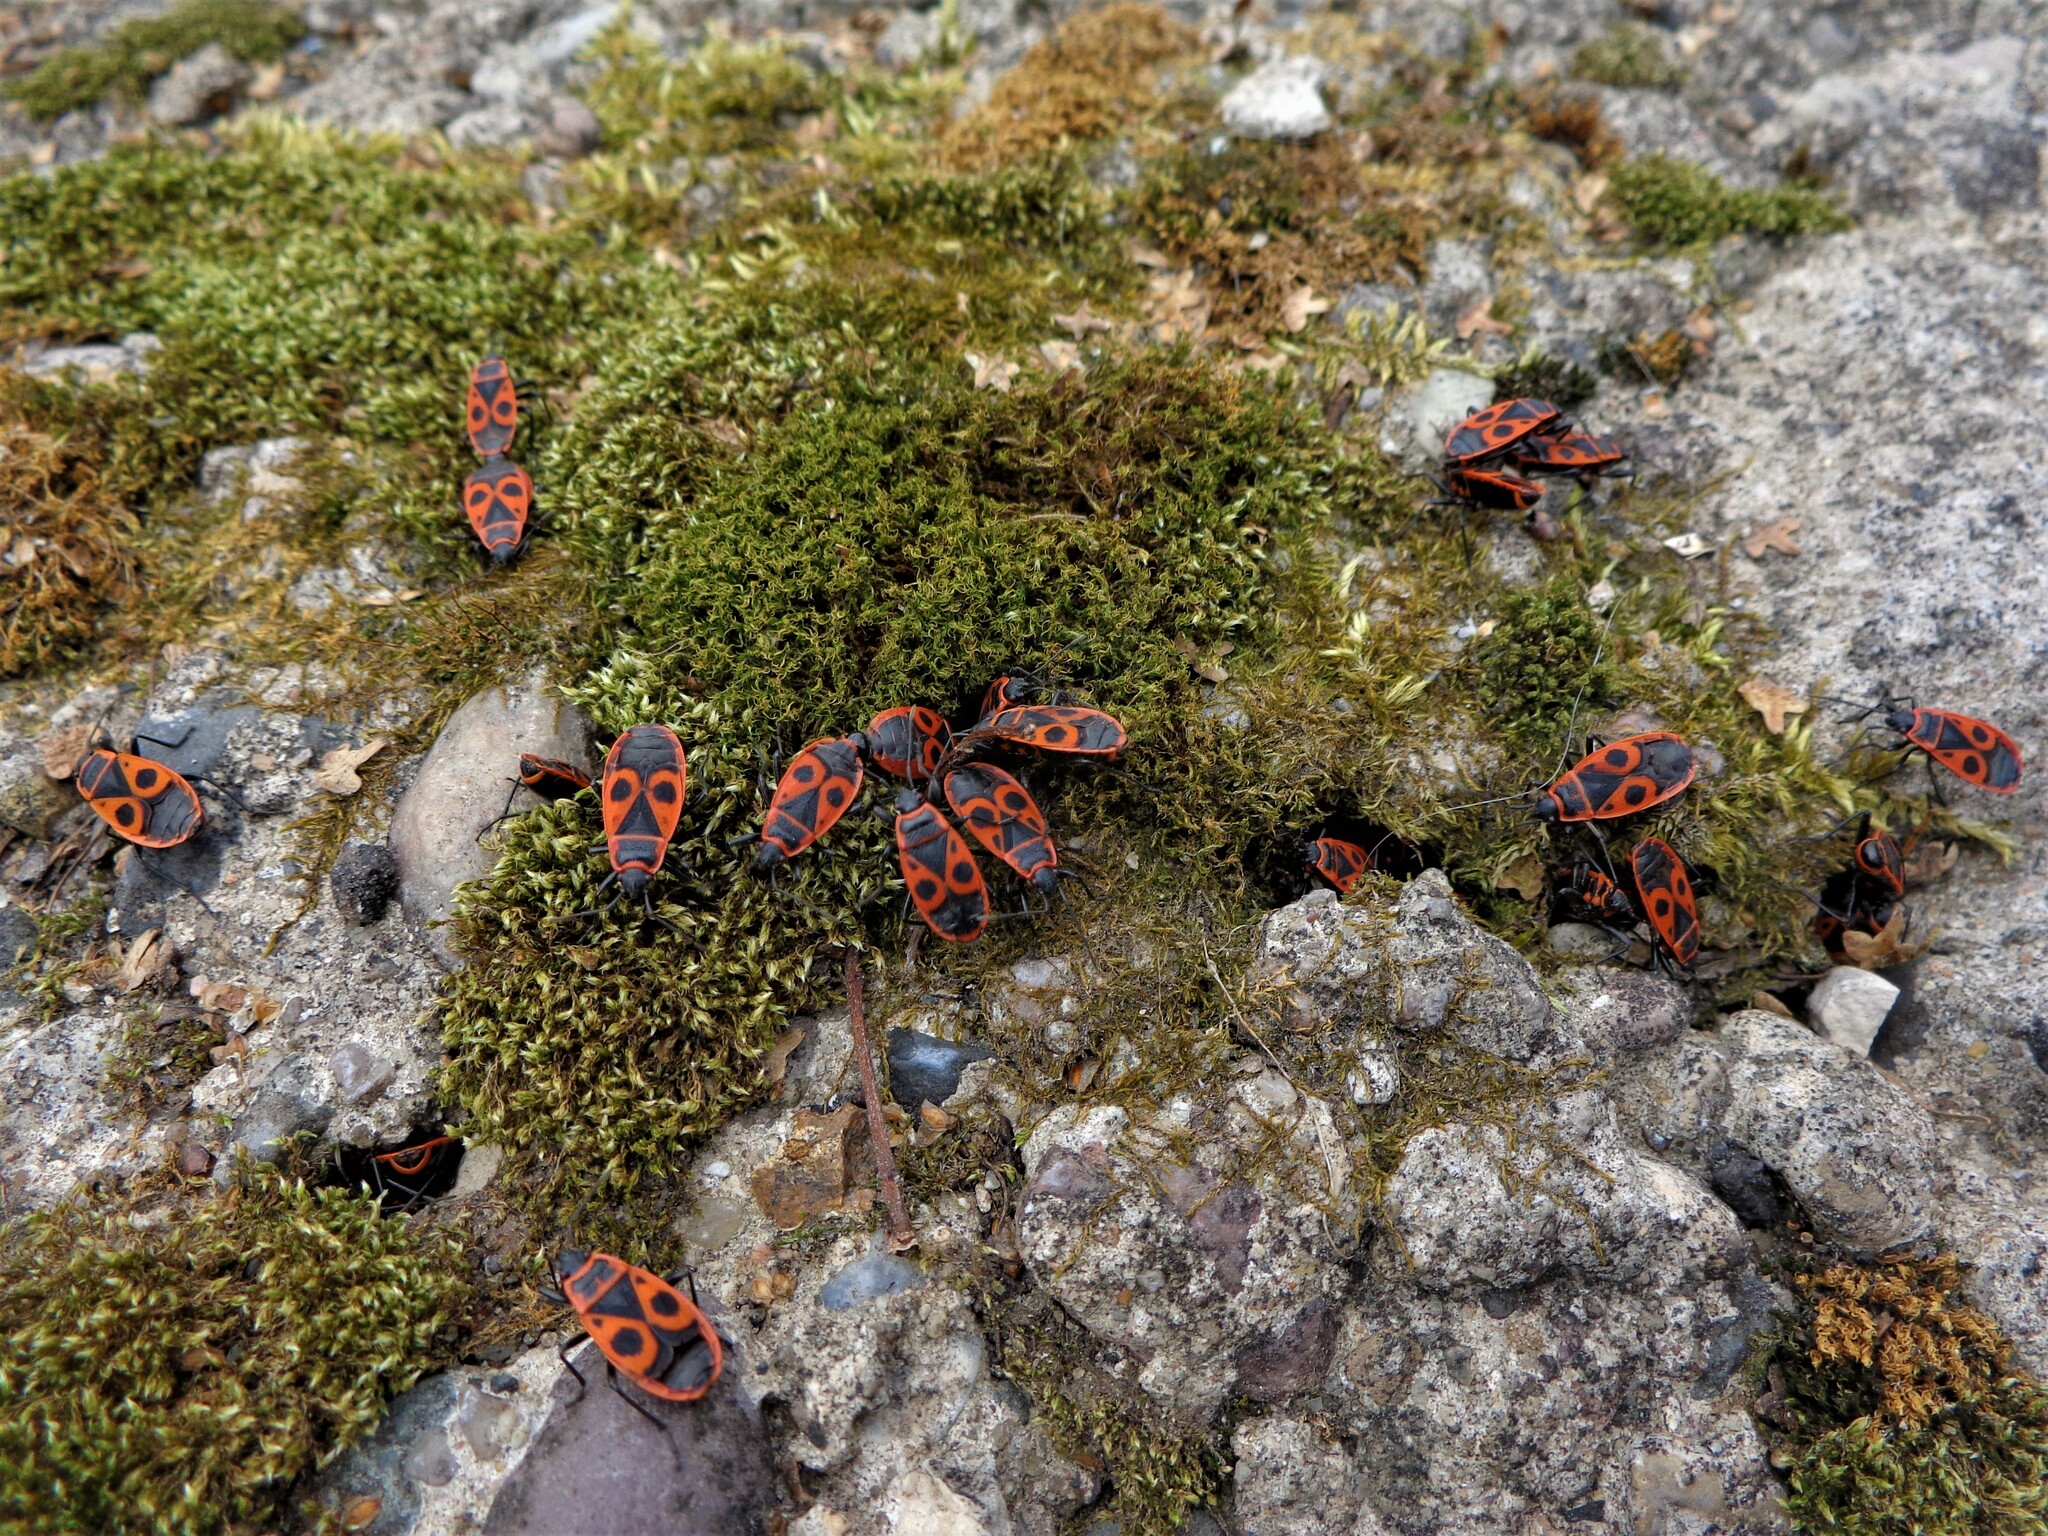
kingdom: Animalia
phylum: Arthropoda
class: Insecta
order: Hemiptera
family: Pyrrhocoridae
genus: Pyrrhocoris
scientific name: Pyrrhocoris apterus
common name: Firebug
